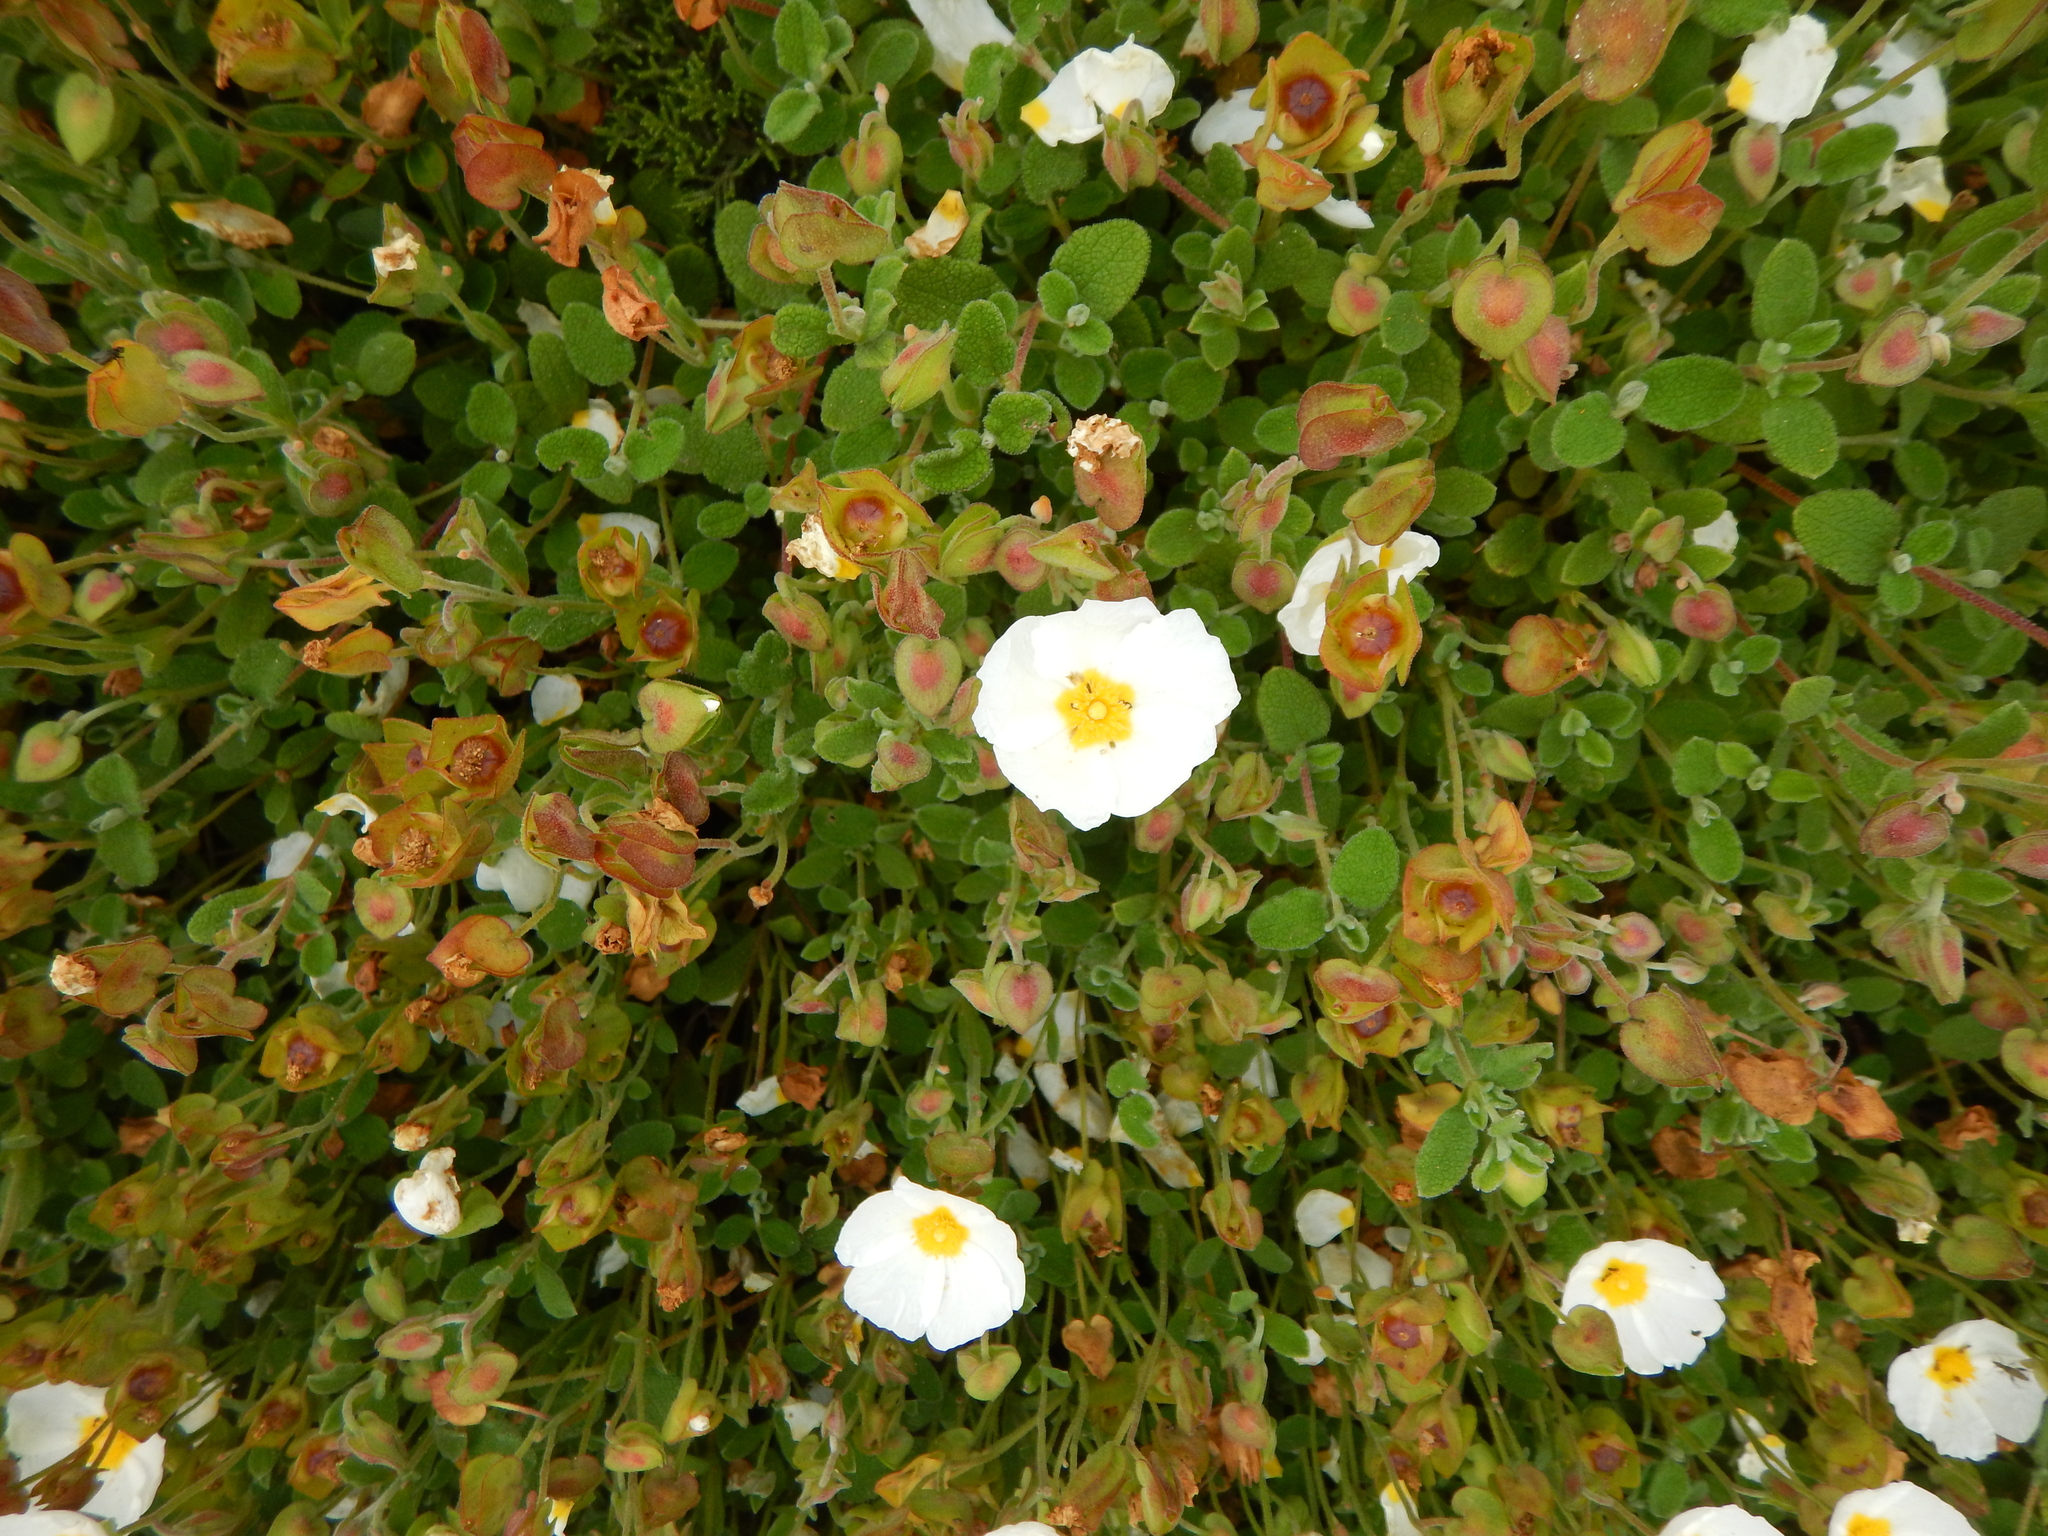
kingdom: Plantae
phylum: Tracheophyta
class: Magnoliopsida
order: Malvales
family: Cistaceae
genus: Cistus
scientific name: Cistus salviifolius
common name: Salvia cistus
